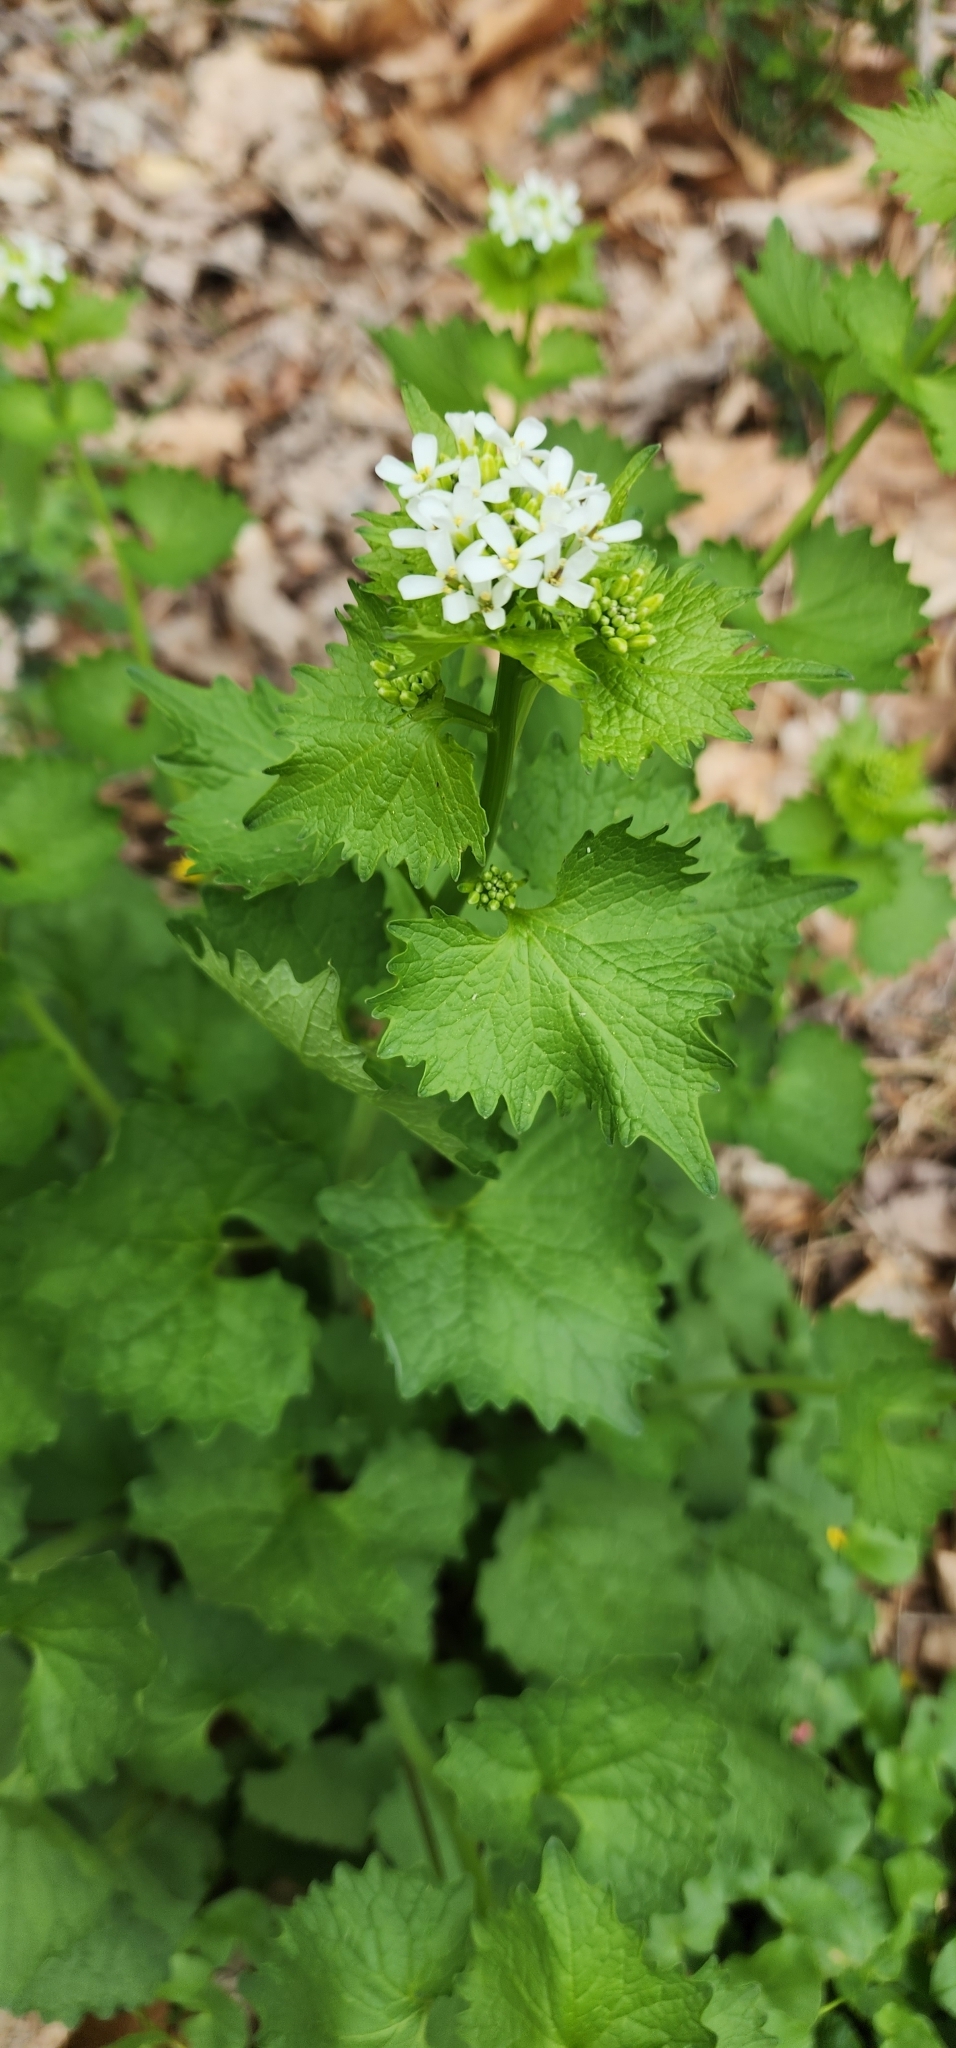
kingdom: Plantae
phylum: Tracheophyta
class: Magnoliopsida
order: Brassicales
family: Brassicaceae
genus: Alliaria
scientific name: Alliaria petiolata
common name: Garlic mustard
